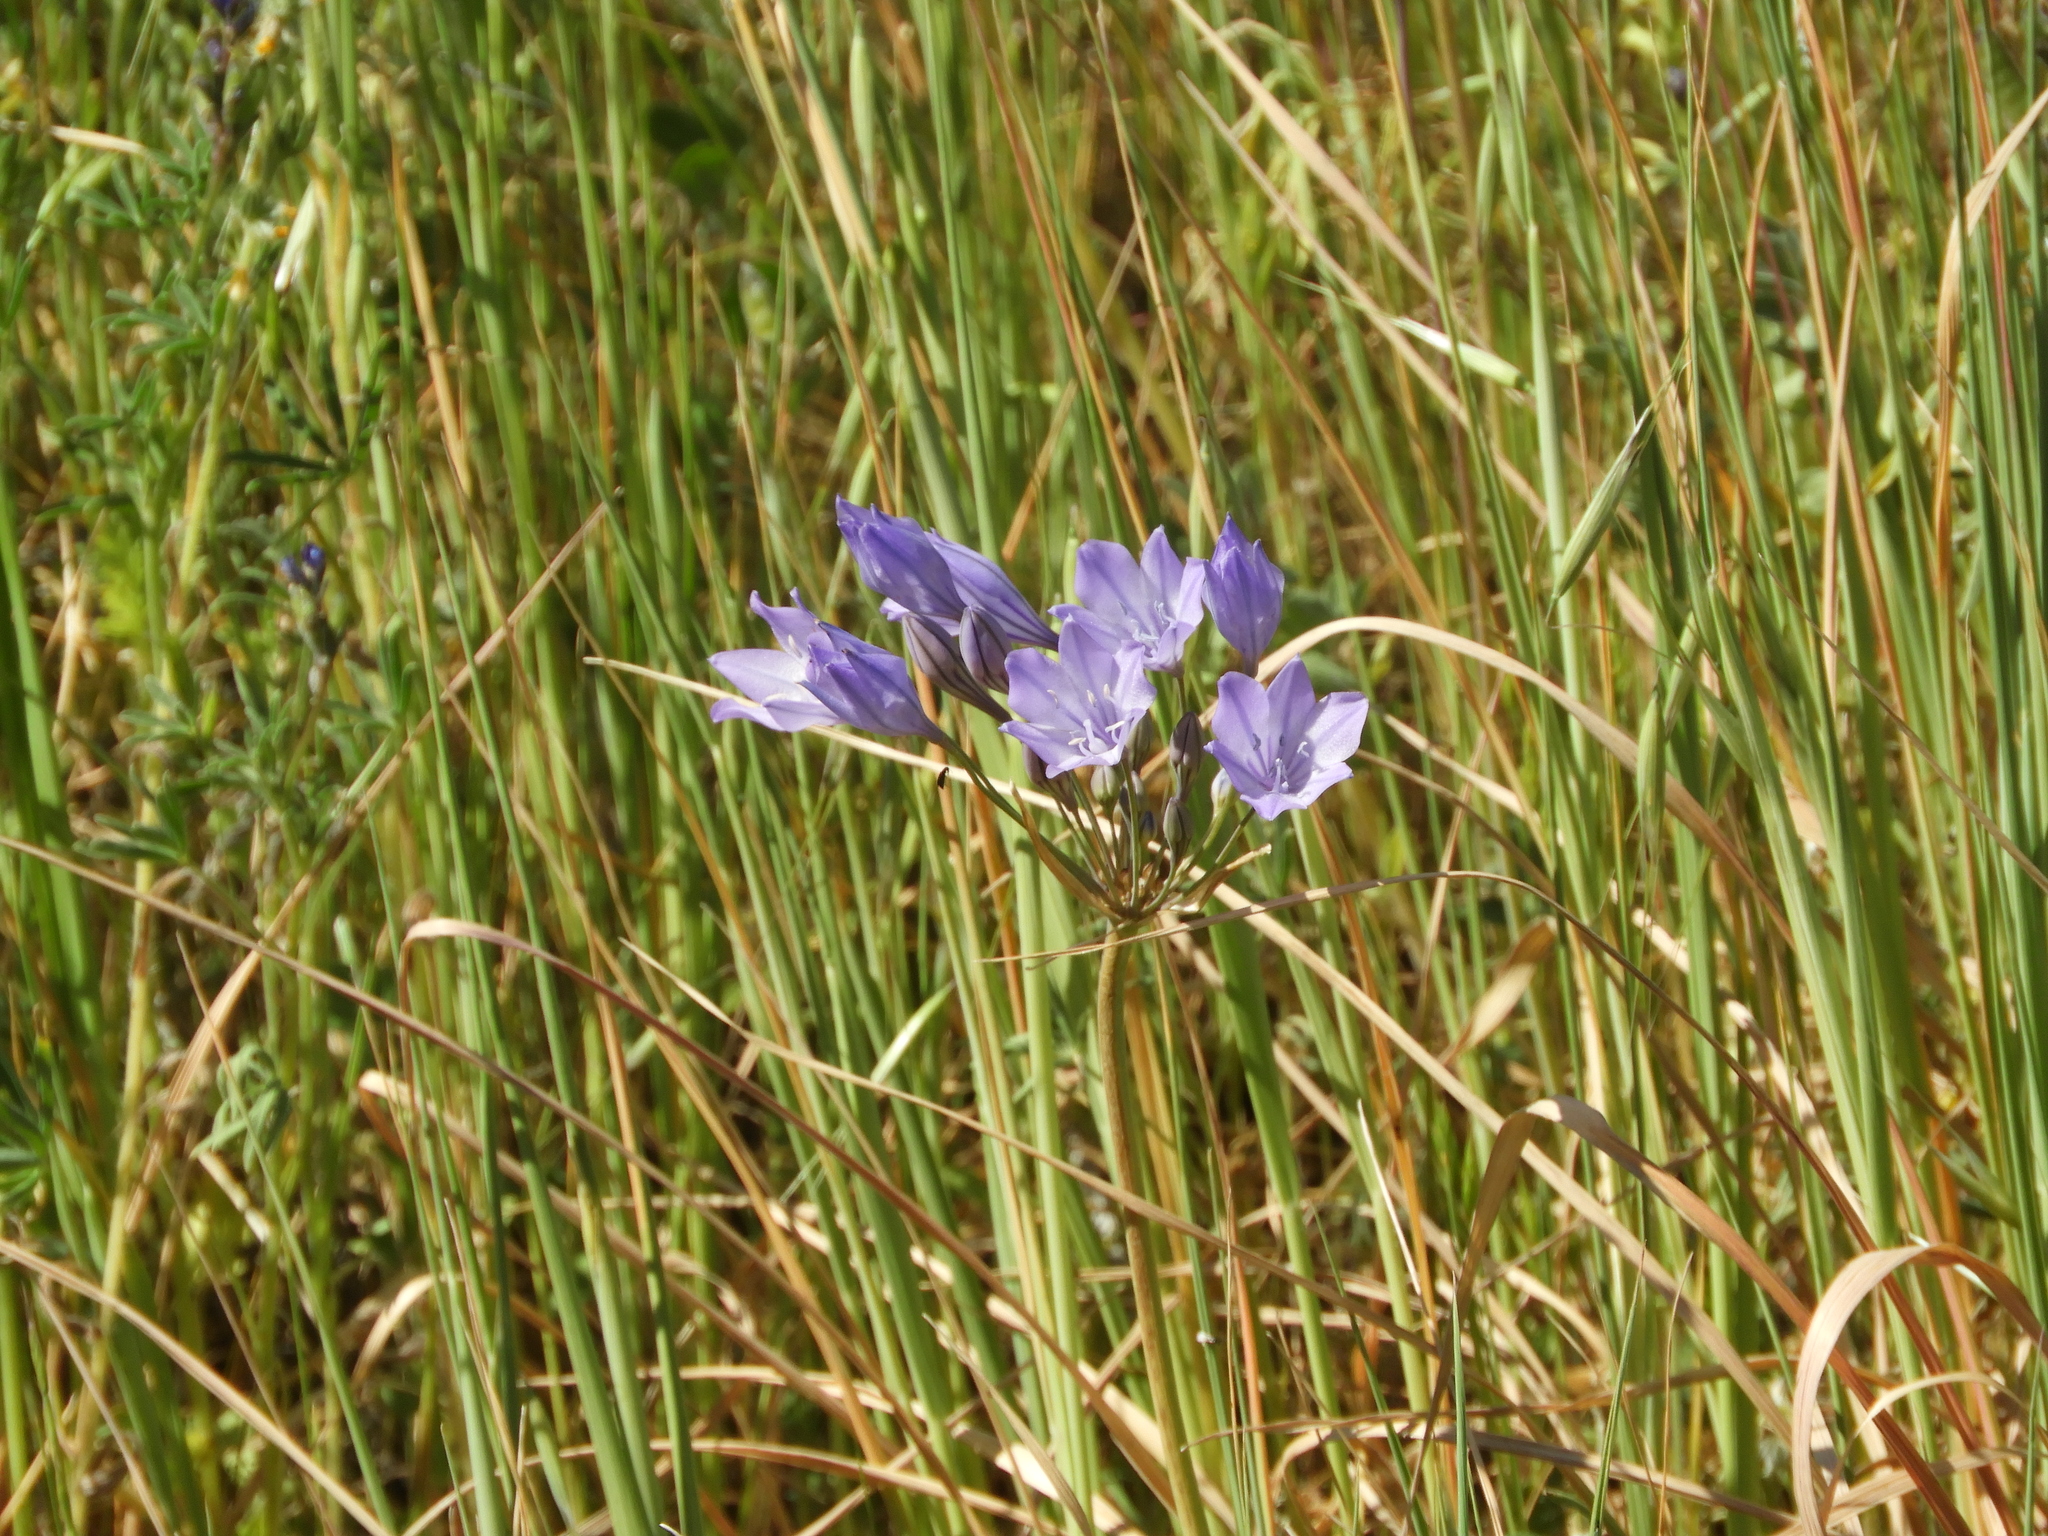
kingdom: Plantae
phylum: Tracheophyta
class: Liliopsida
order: Asparagales
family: Asparagaceae
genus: Triteleia
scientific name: Triteleia laxa
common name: Triplet-lily
